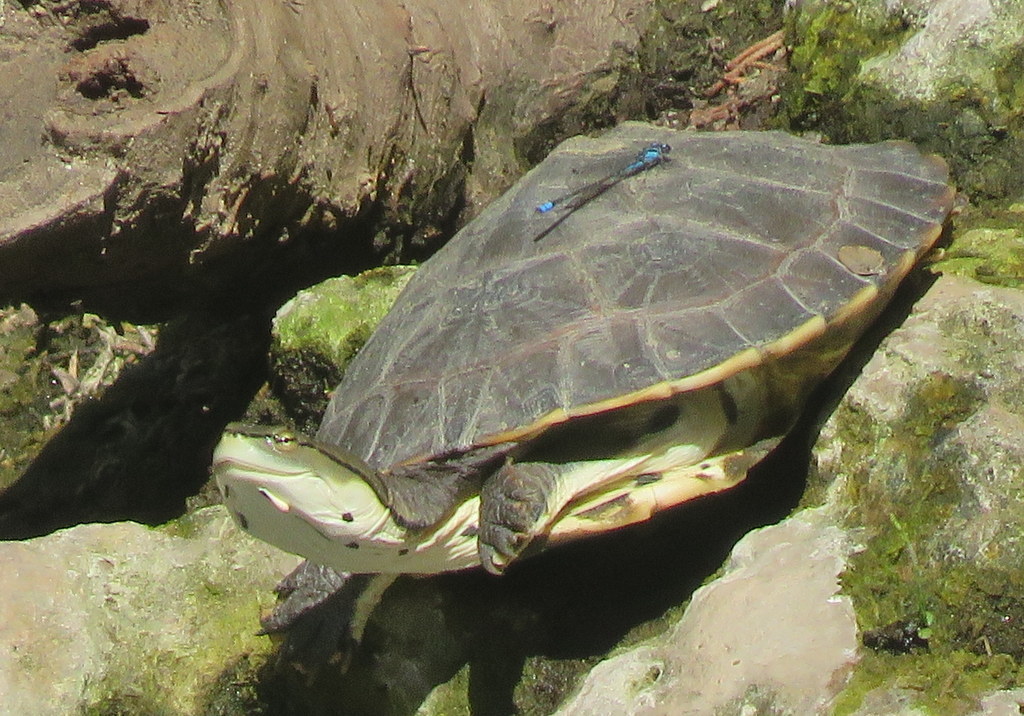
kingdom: Animalia
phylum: Arthropoda
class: Insecta
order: Odonata
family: Coenagrionidae
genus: Acanthagrion
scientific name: Acanthagrion lancea
